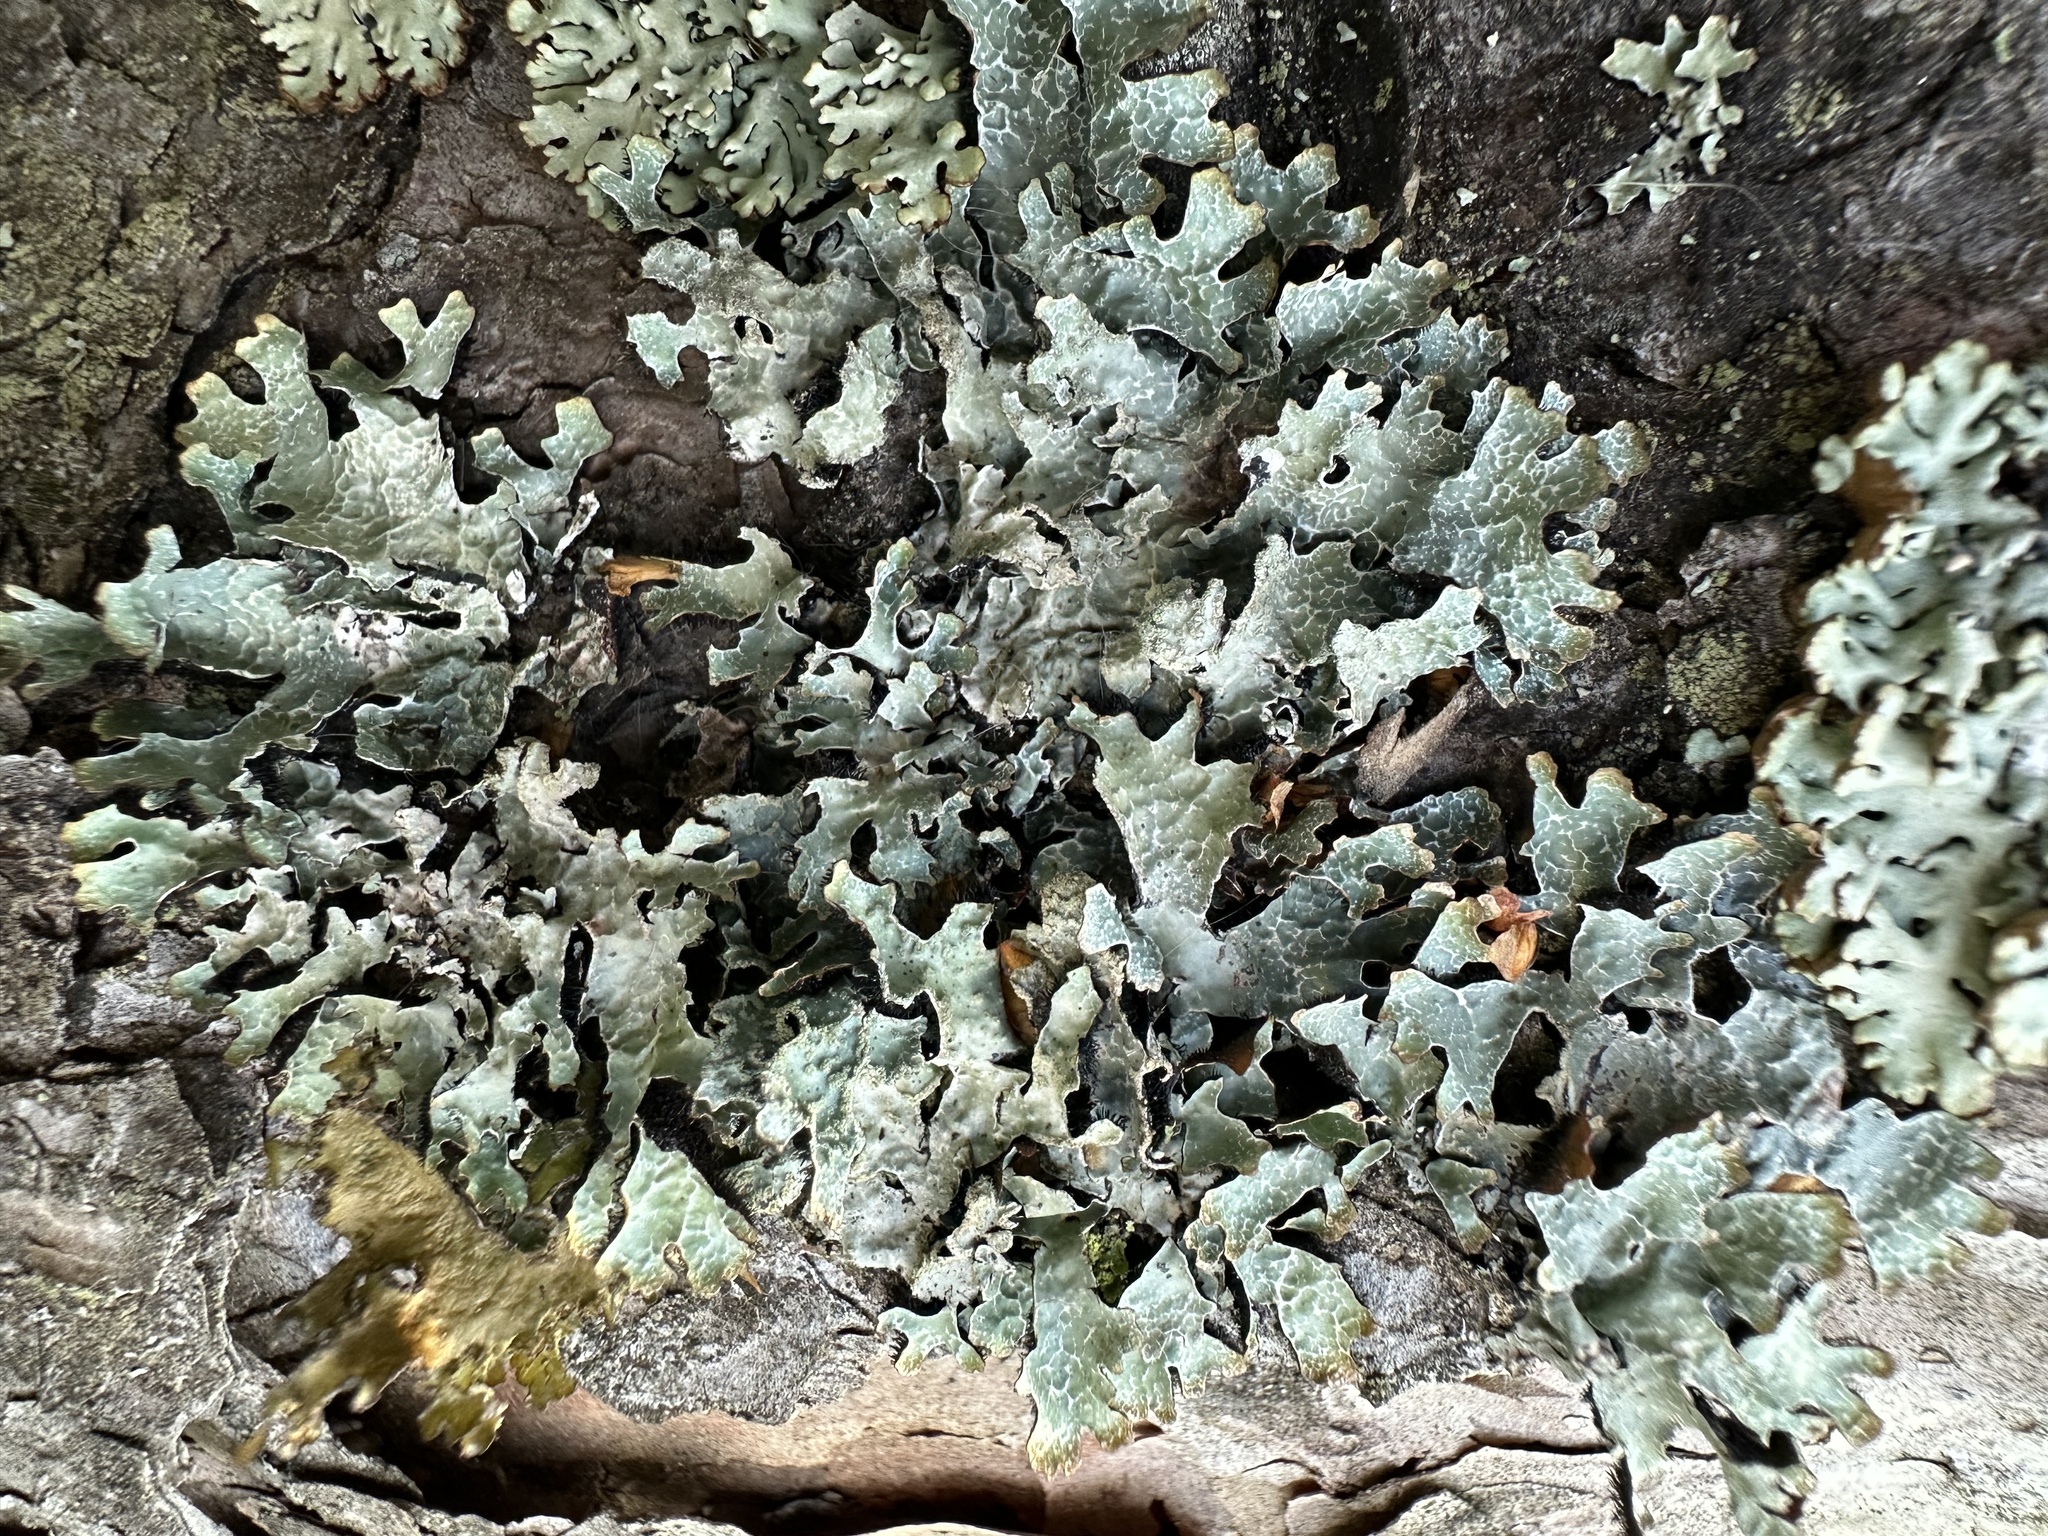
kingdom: Fungi
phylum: Ascomycota
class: Lecanoromycetes
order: Lecanorales
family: Parmeliaceae
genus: Parmelia
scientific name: Parmelia sulcata
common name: Netted shield lichen
